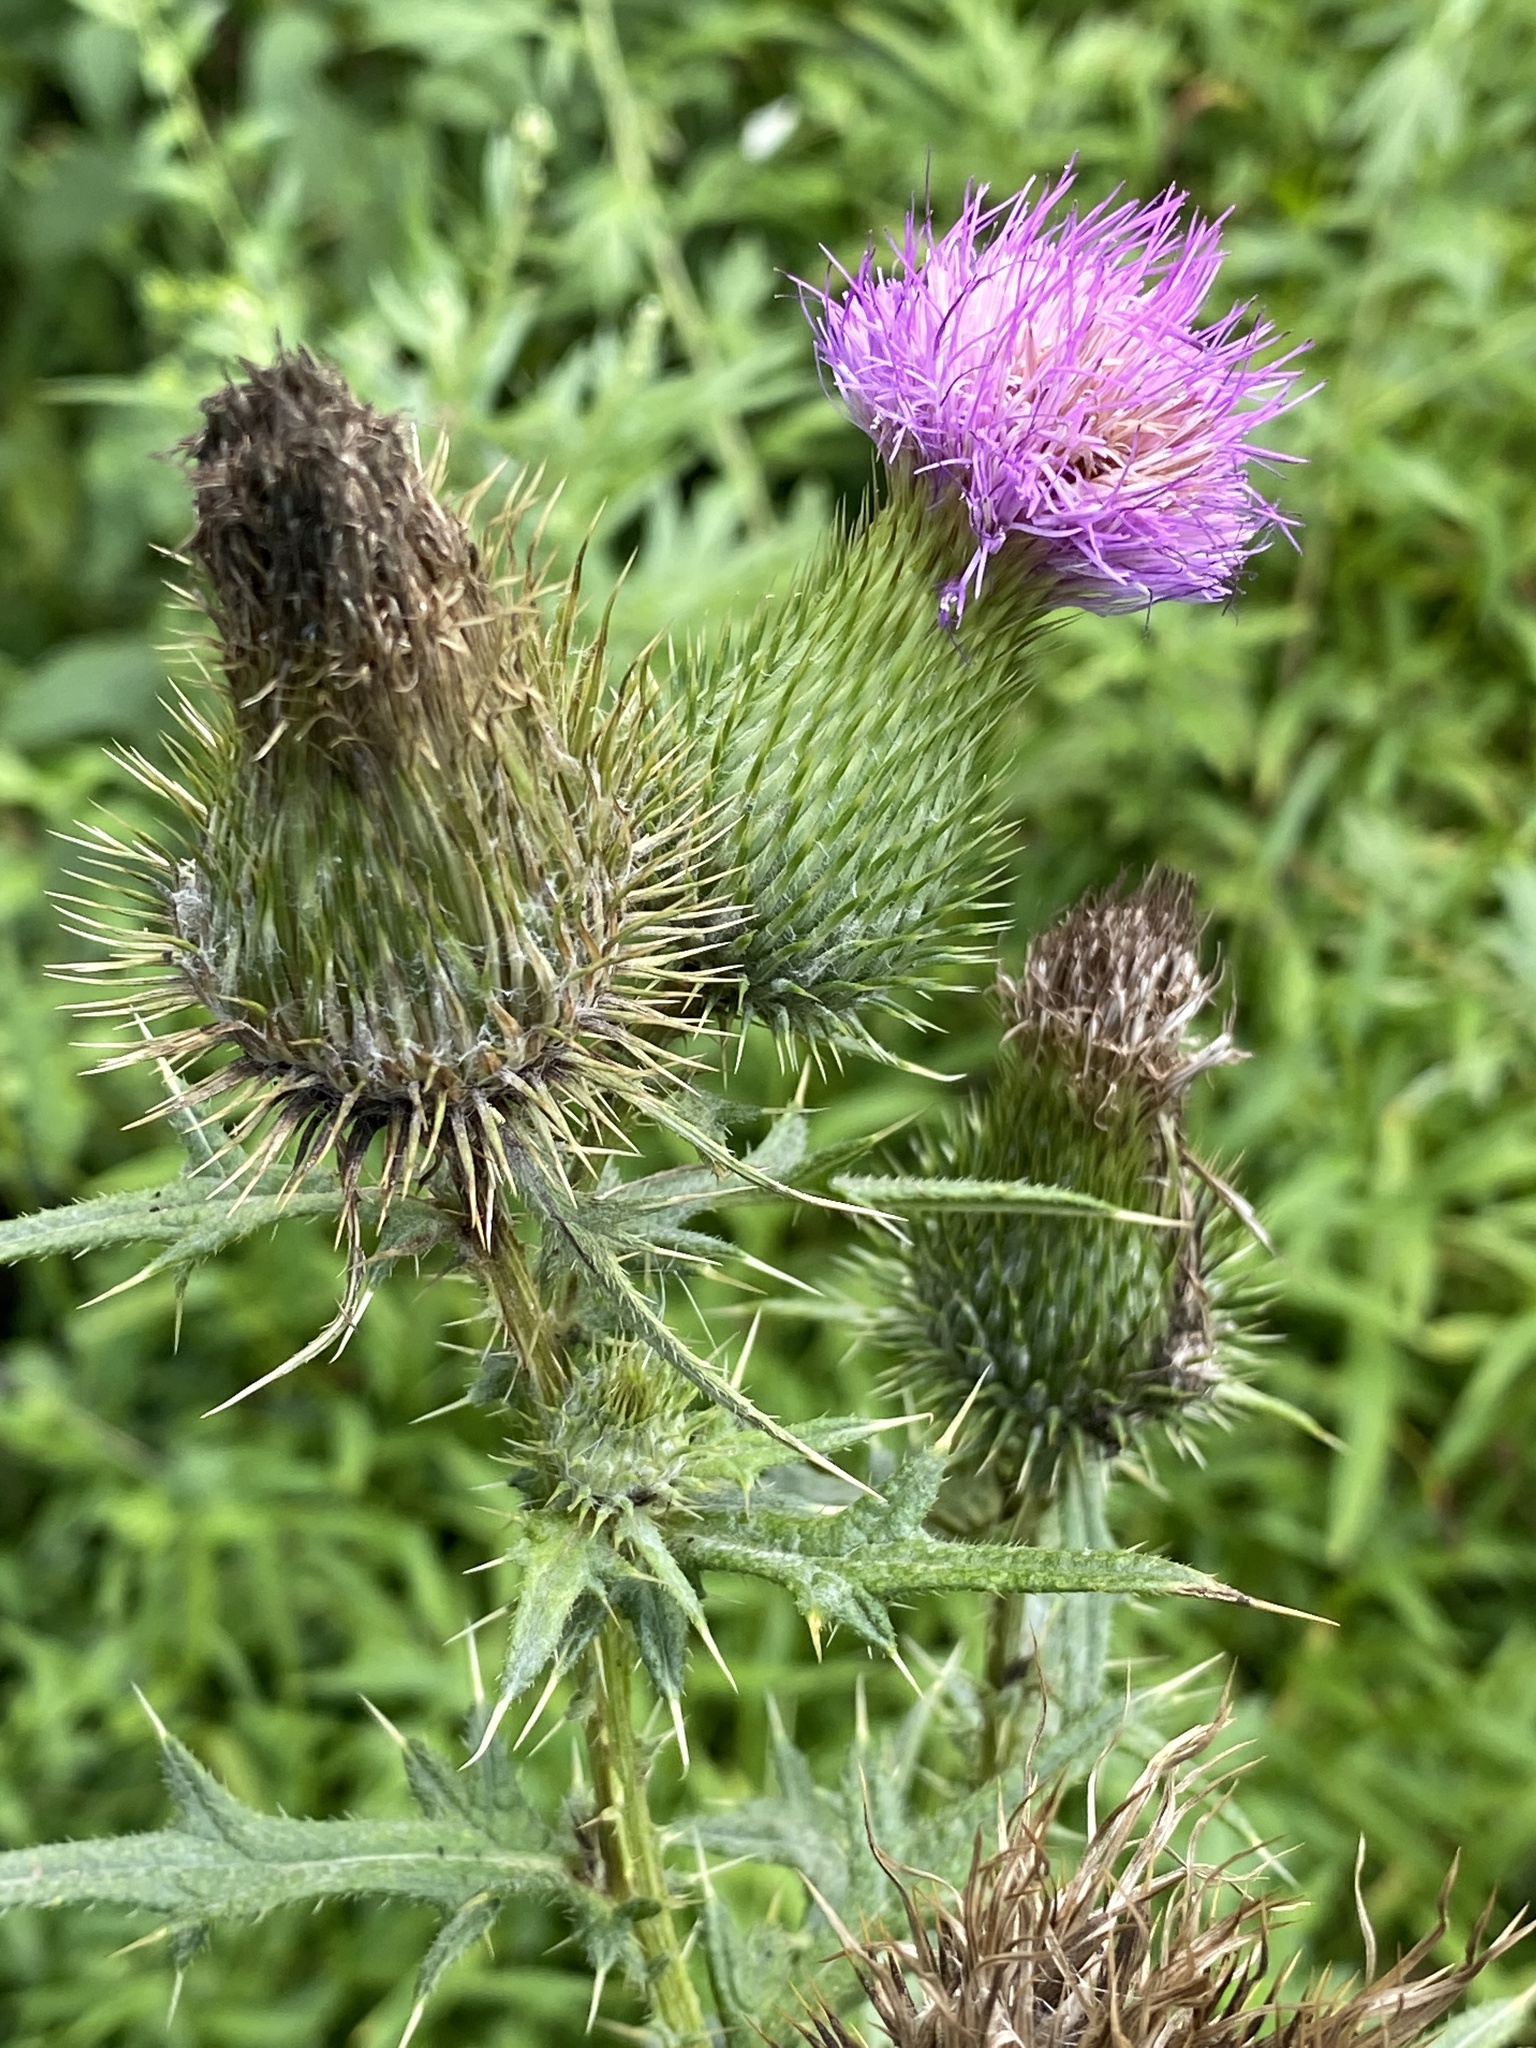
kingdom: Plantae
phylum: Tracheophyta
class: Magnoliopsida
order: Asterales
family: Asteraceae
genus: Cirsium
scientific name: Cirsium vulgare
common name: Bull thistle
